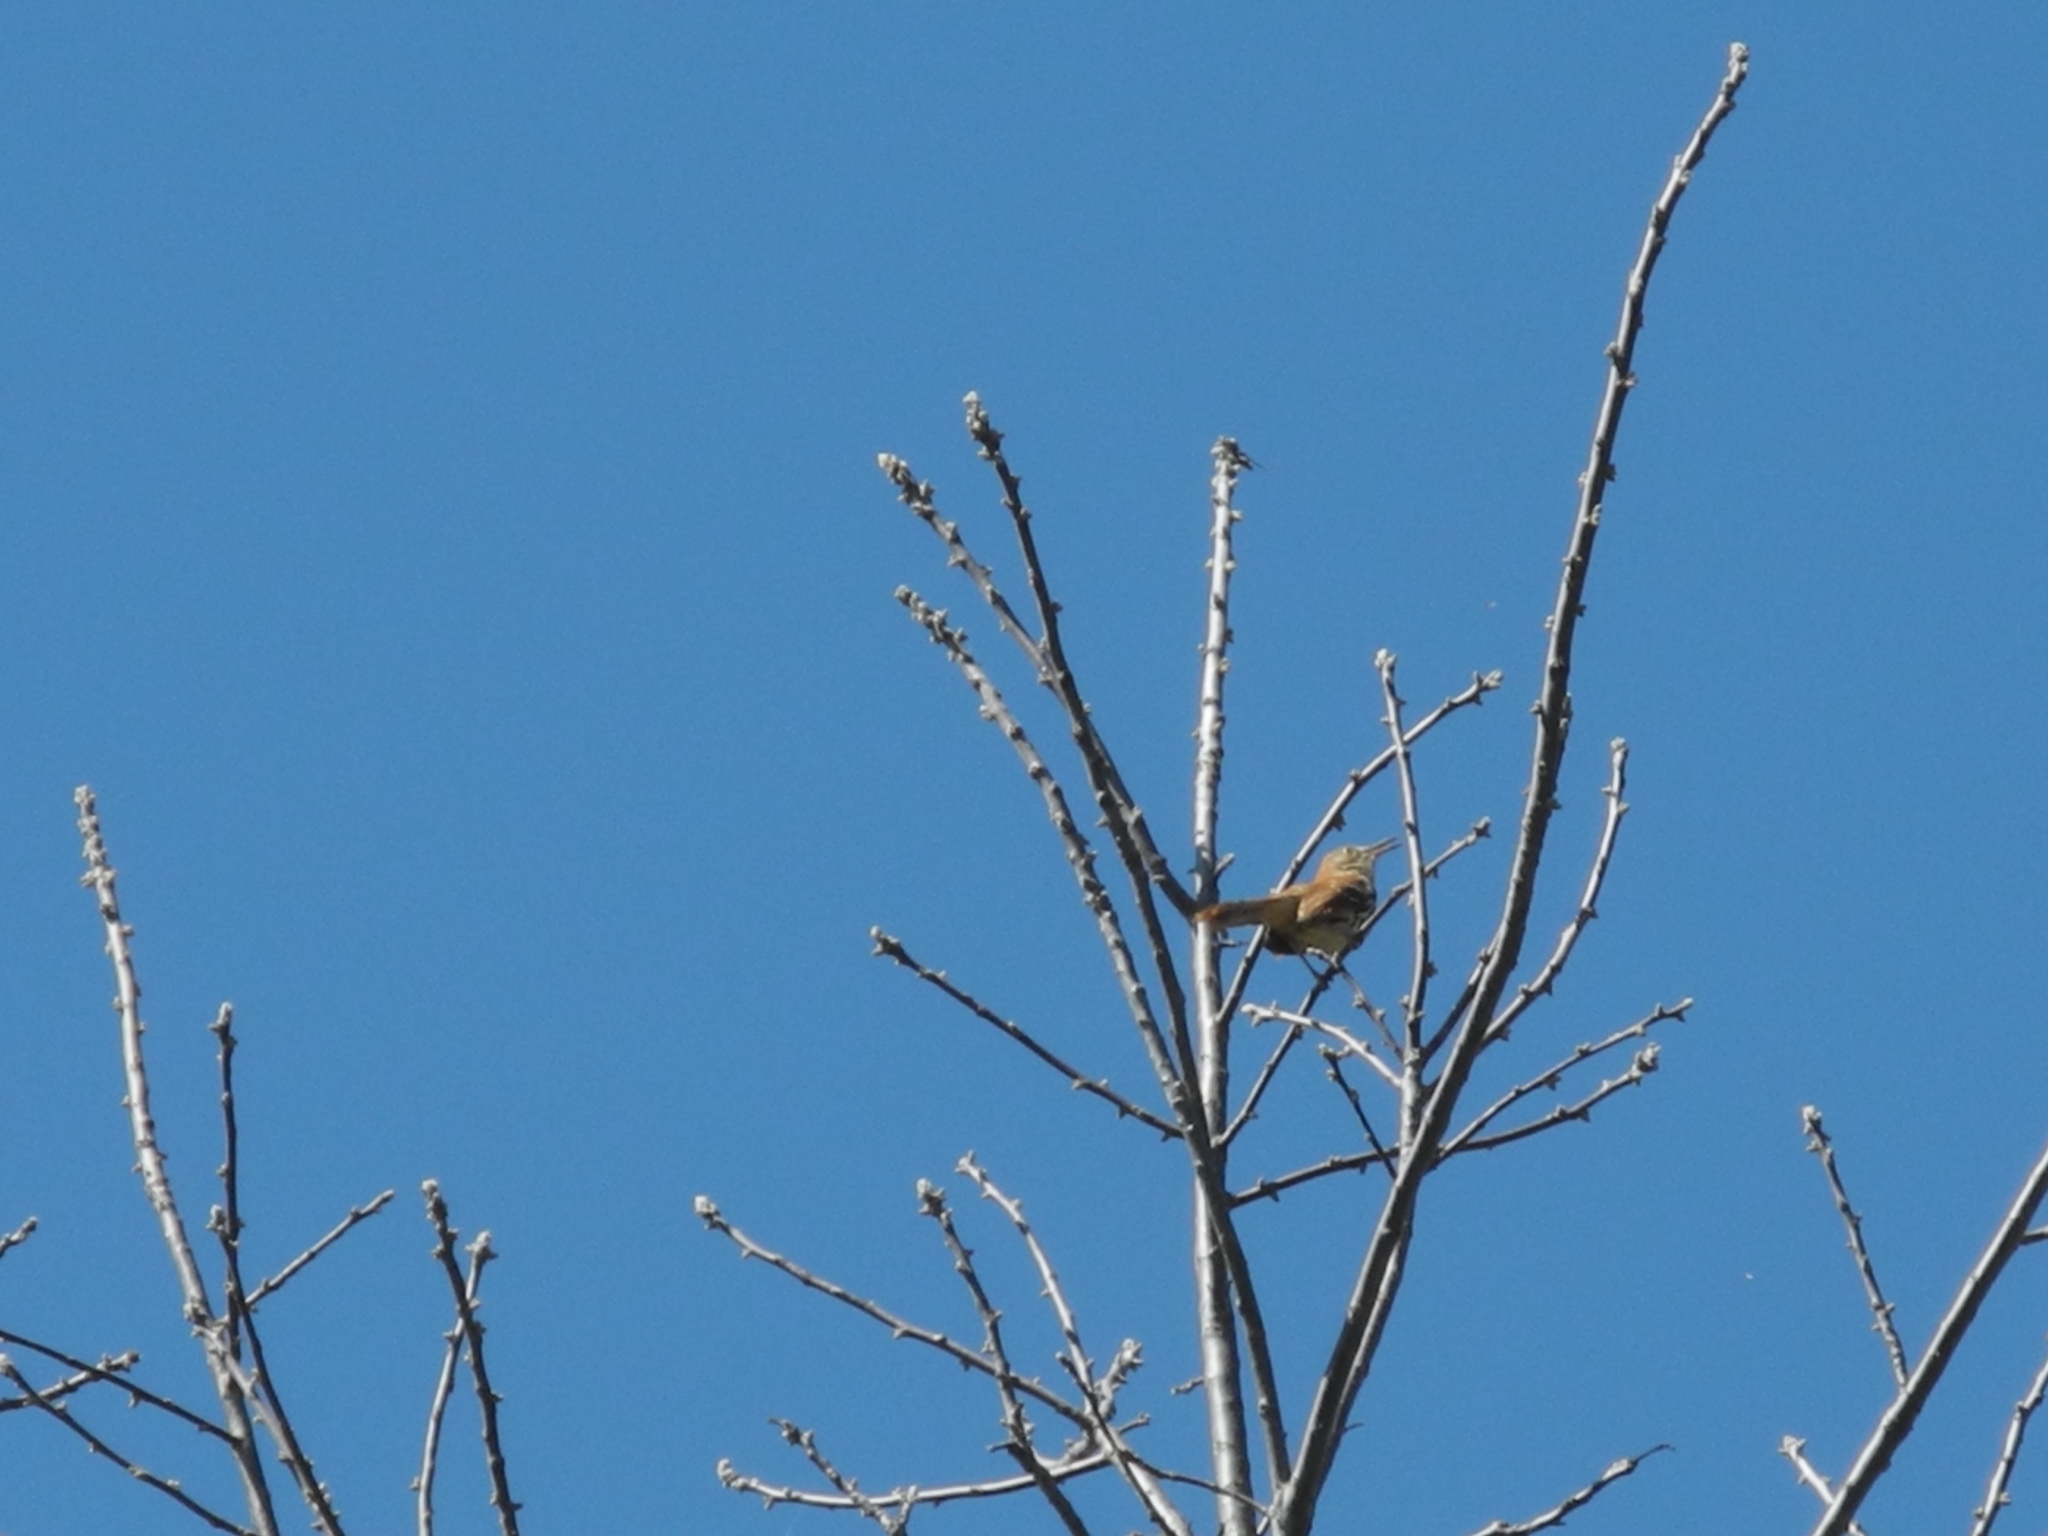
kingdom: Animalia
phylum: Chordata
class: Aves
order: Passeriformes
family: Mimidae
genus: Toxostoma
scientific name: Toxostoma rufum
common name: Brown thrasher
